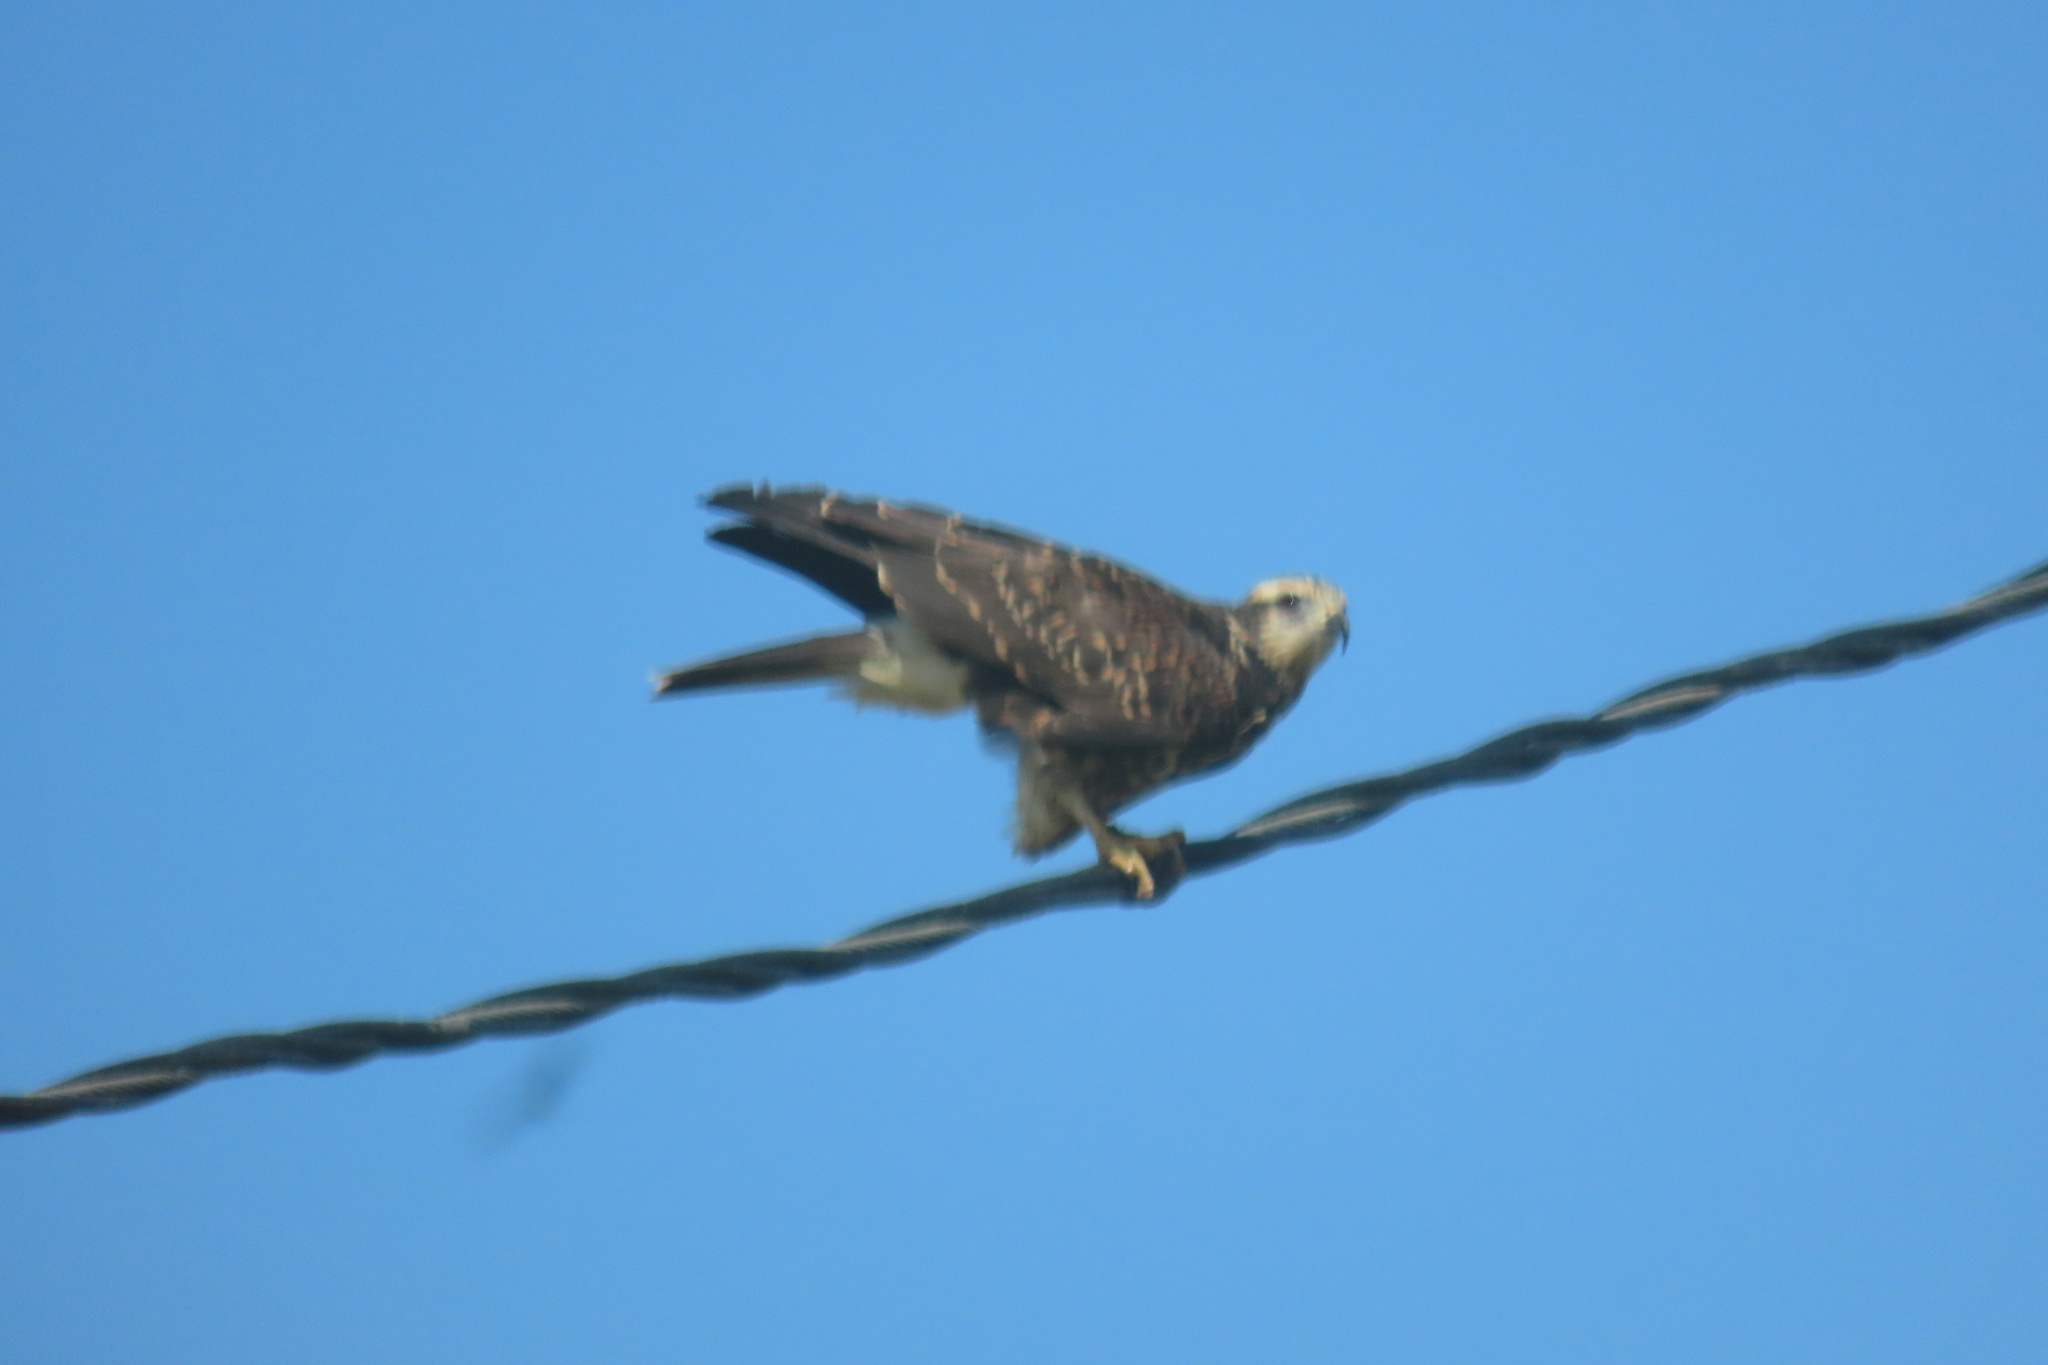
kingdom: Animalia
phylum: Chordata
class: Aves
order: Accipitriformes
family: Accipitridae
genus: Rostrhamus
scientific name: Rostrhamus sociabilis
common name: Snail kite
